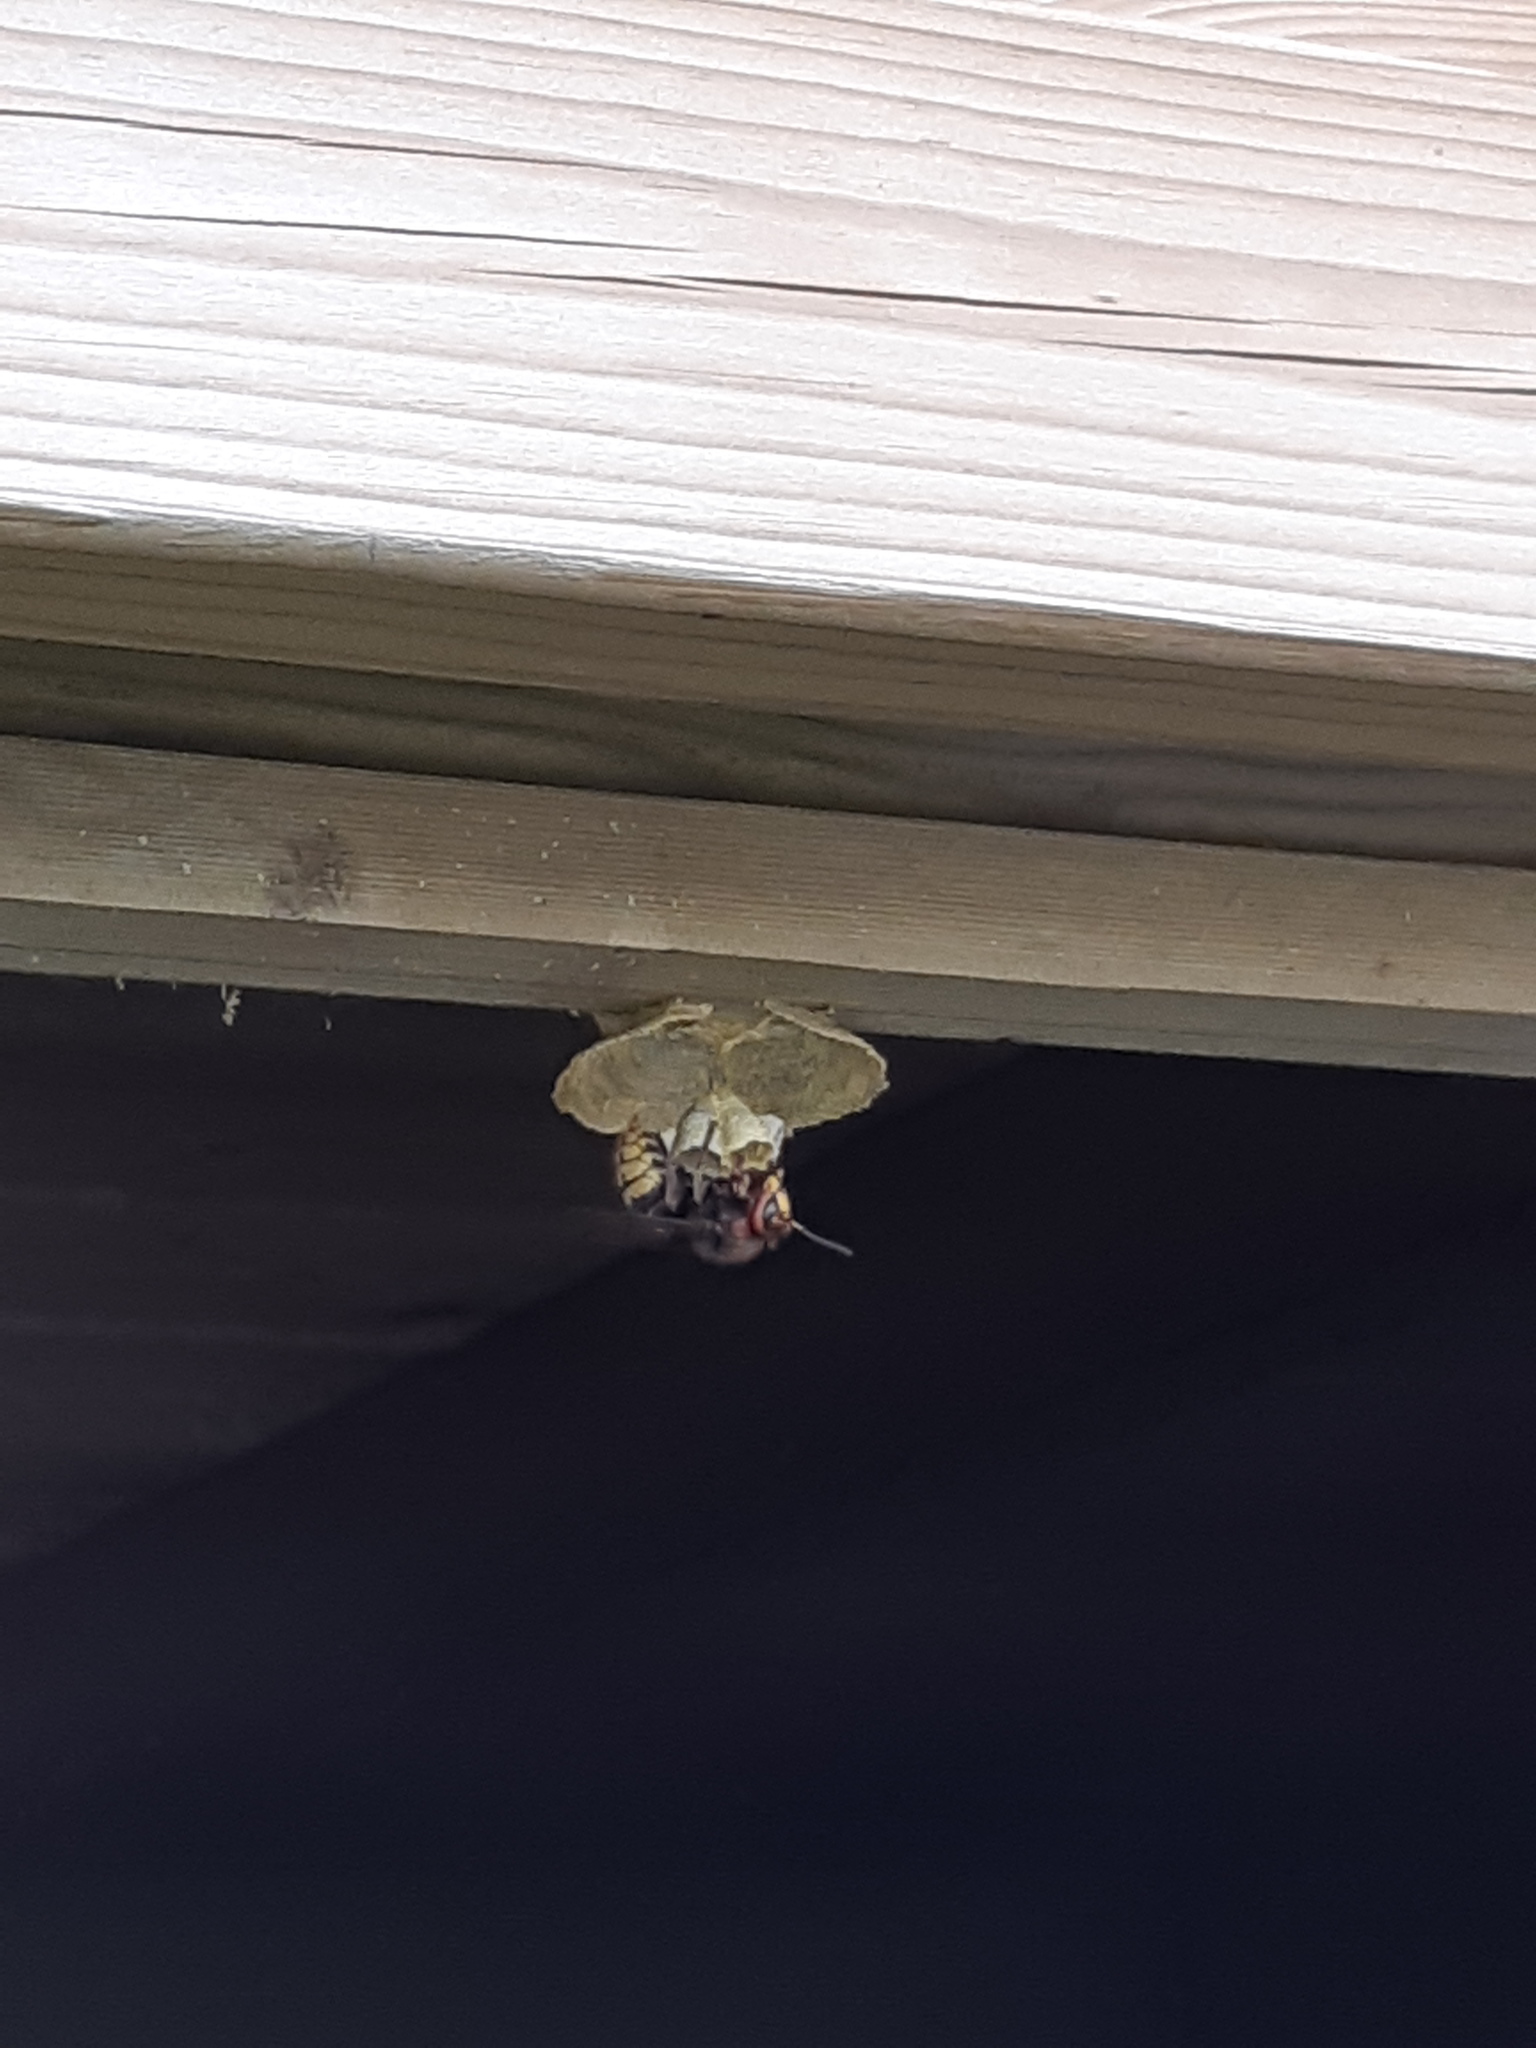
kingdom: Animalia
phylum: Arthropoda
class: Insecta
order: Hymenoptera
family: Vespidae
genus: Vespa
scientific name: Vespa crabro
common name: Hornet
